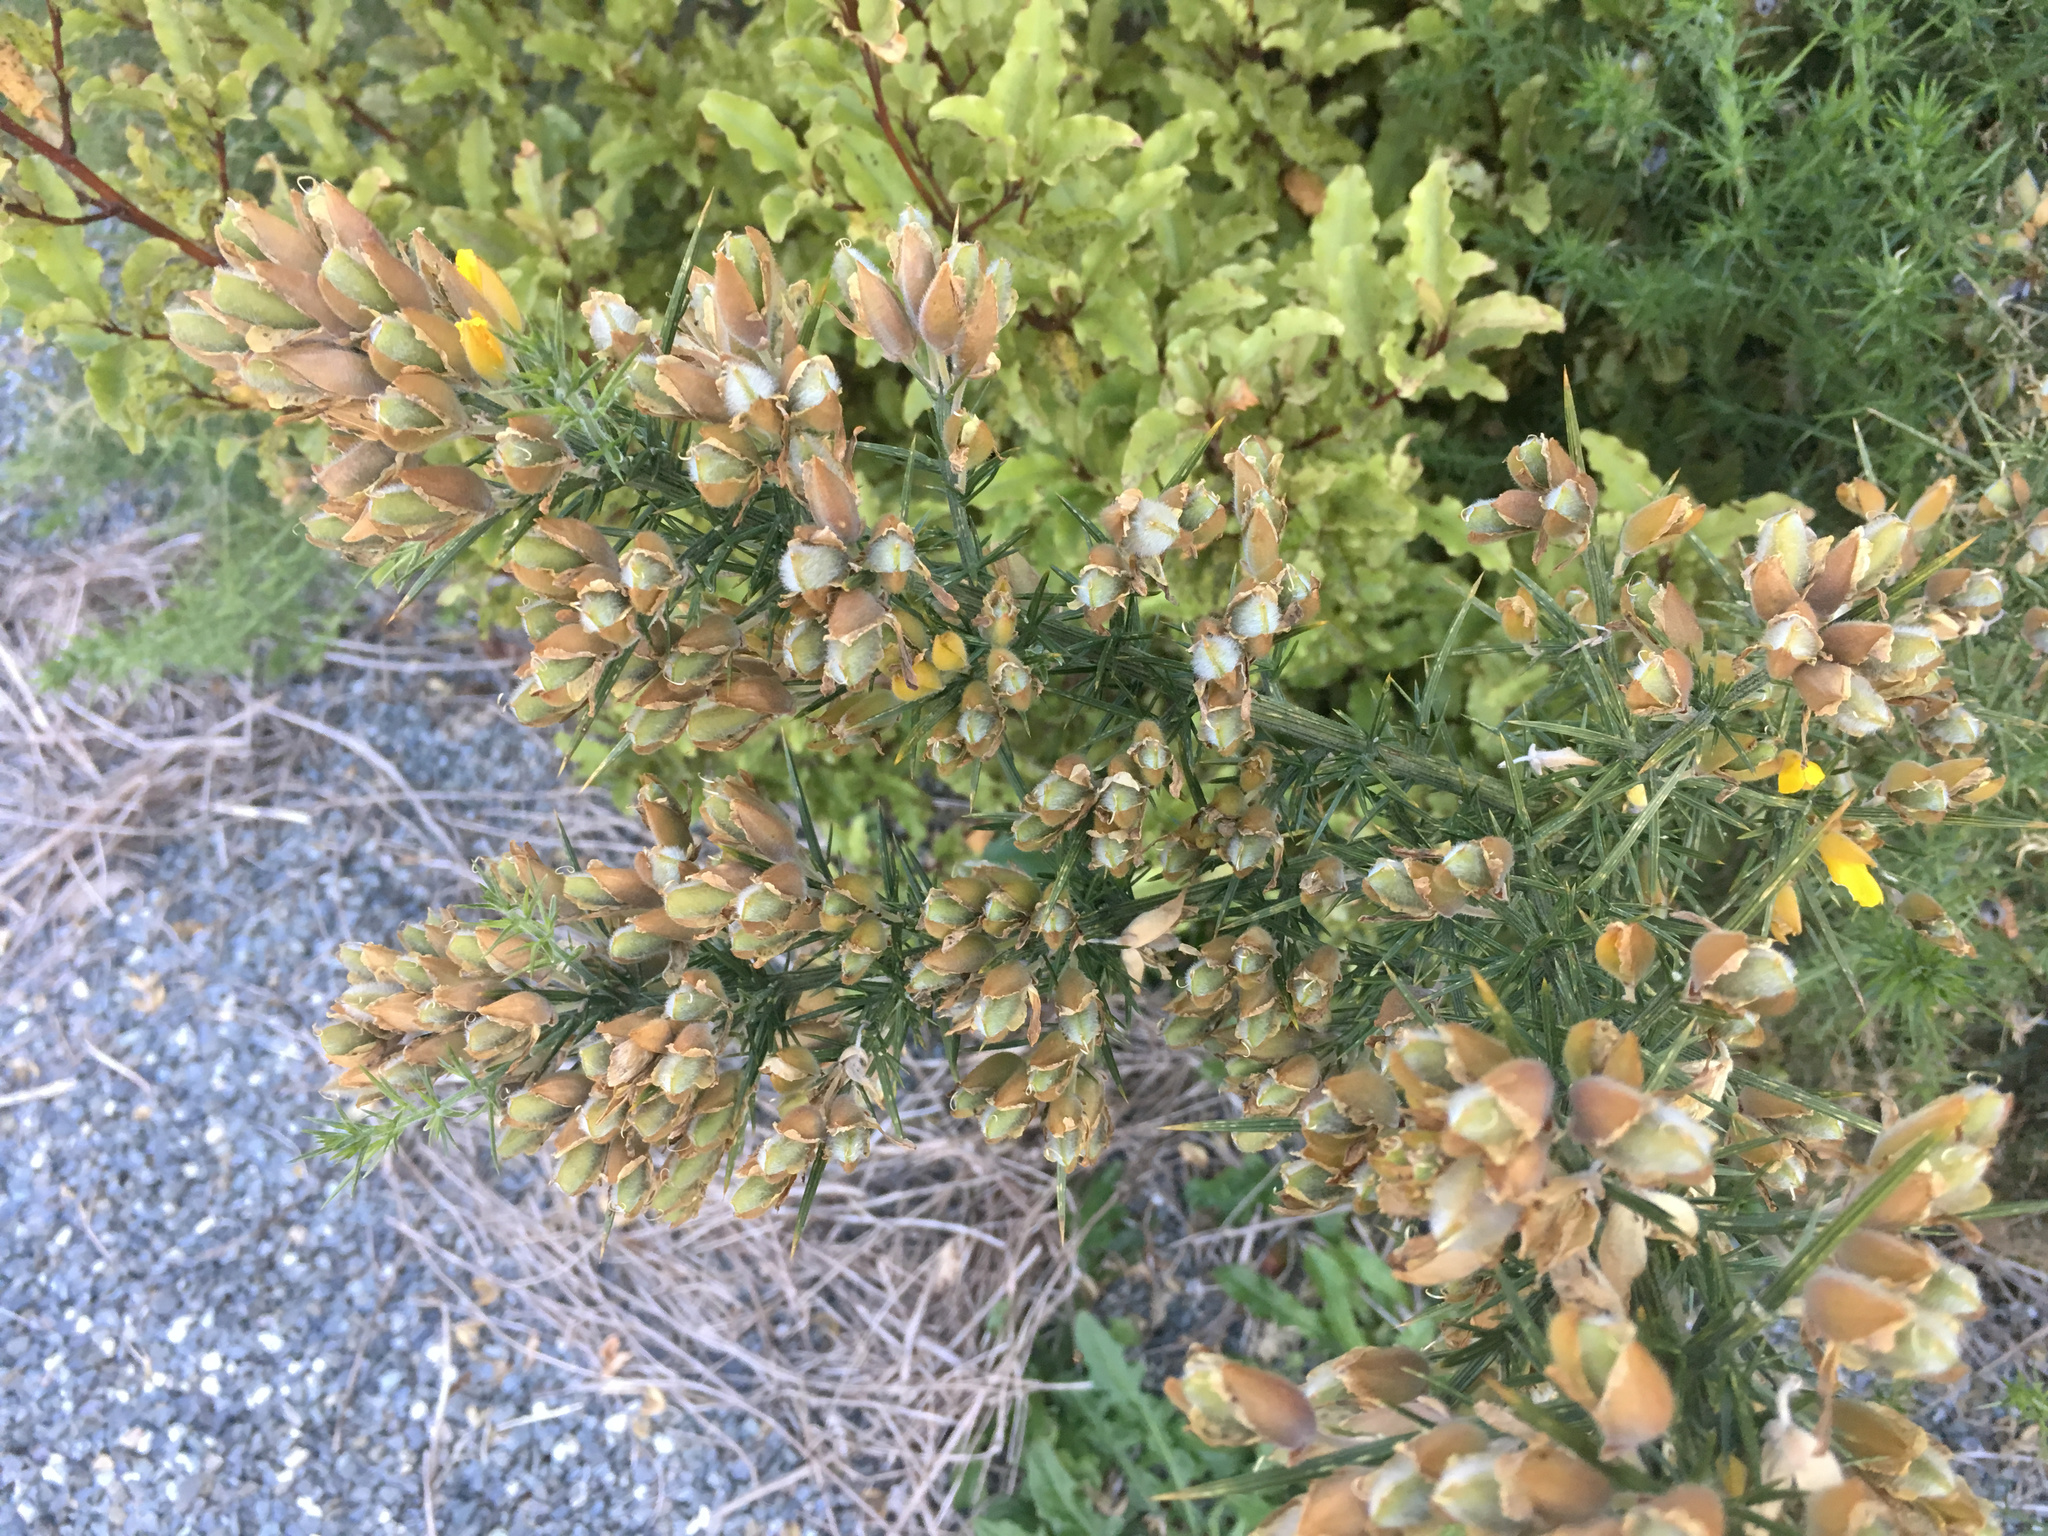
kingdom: Plantae
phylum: Tracheophyta
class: Magnoliopsida
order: Fabales
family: Fabaceae
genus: Ulex
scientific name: Ulex europaeus
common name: Common gorse
